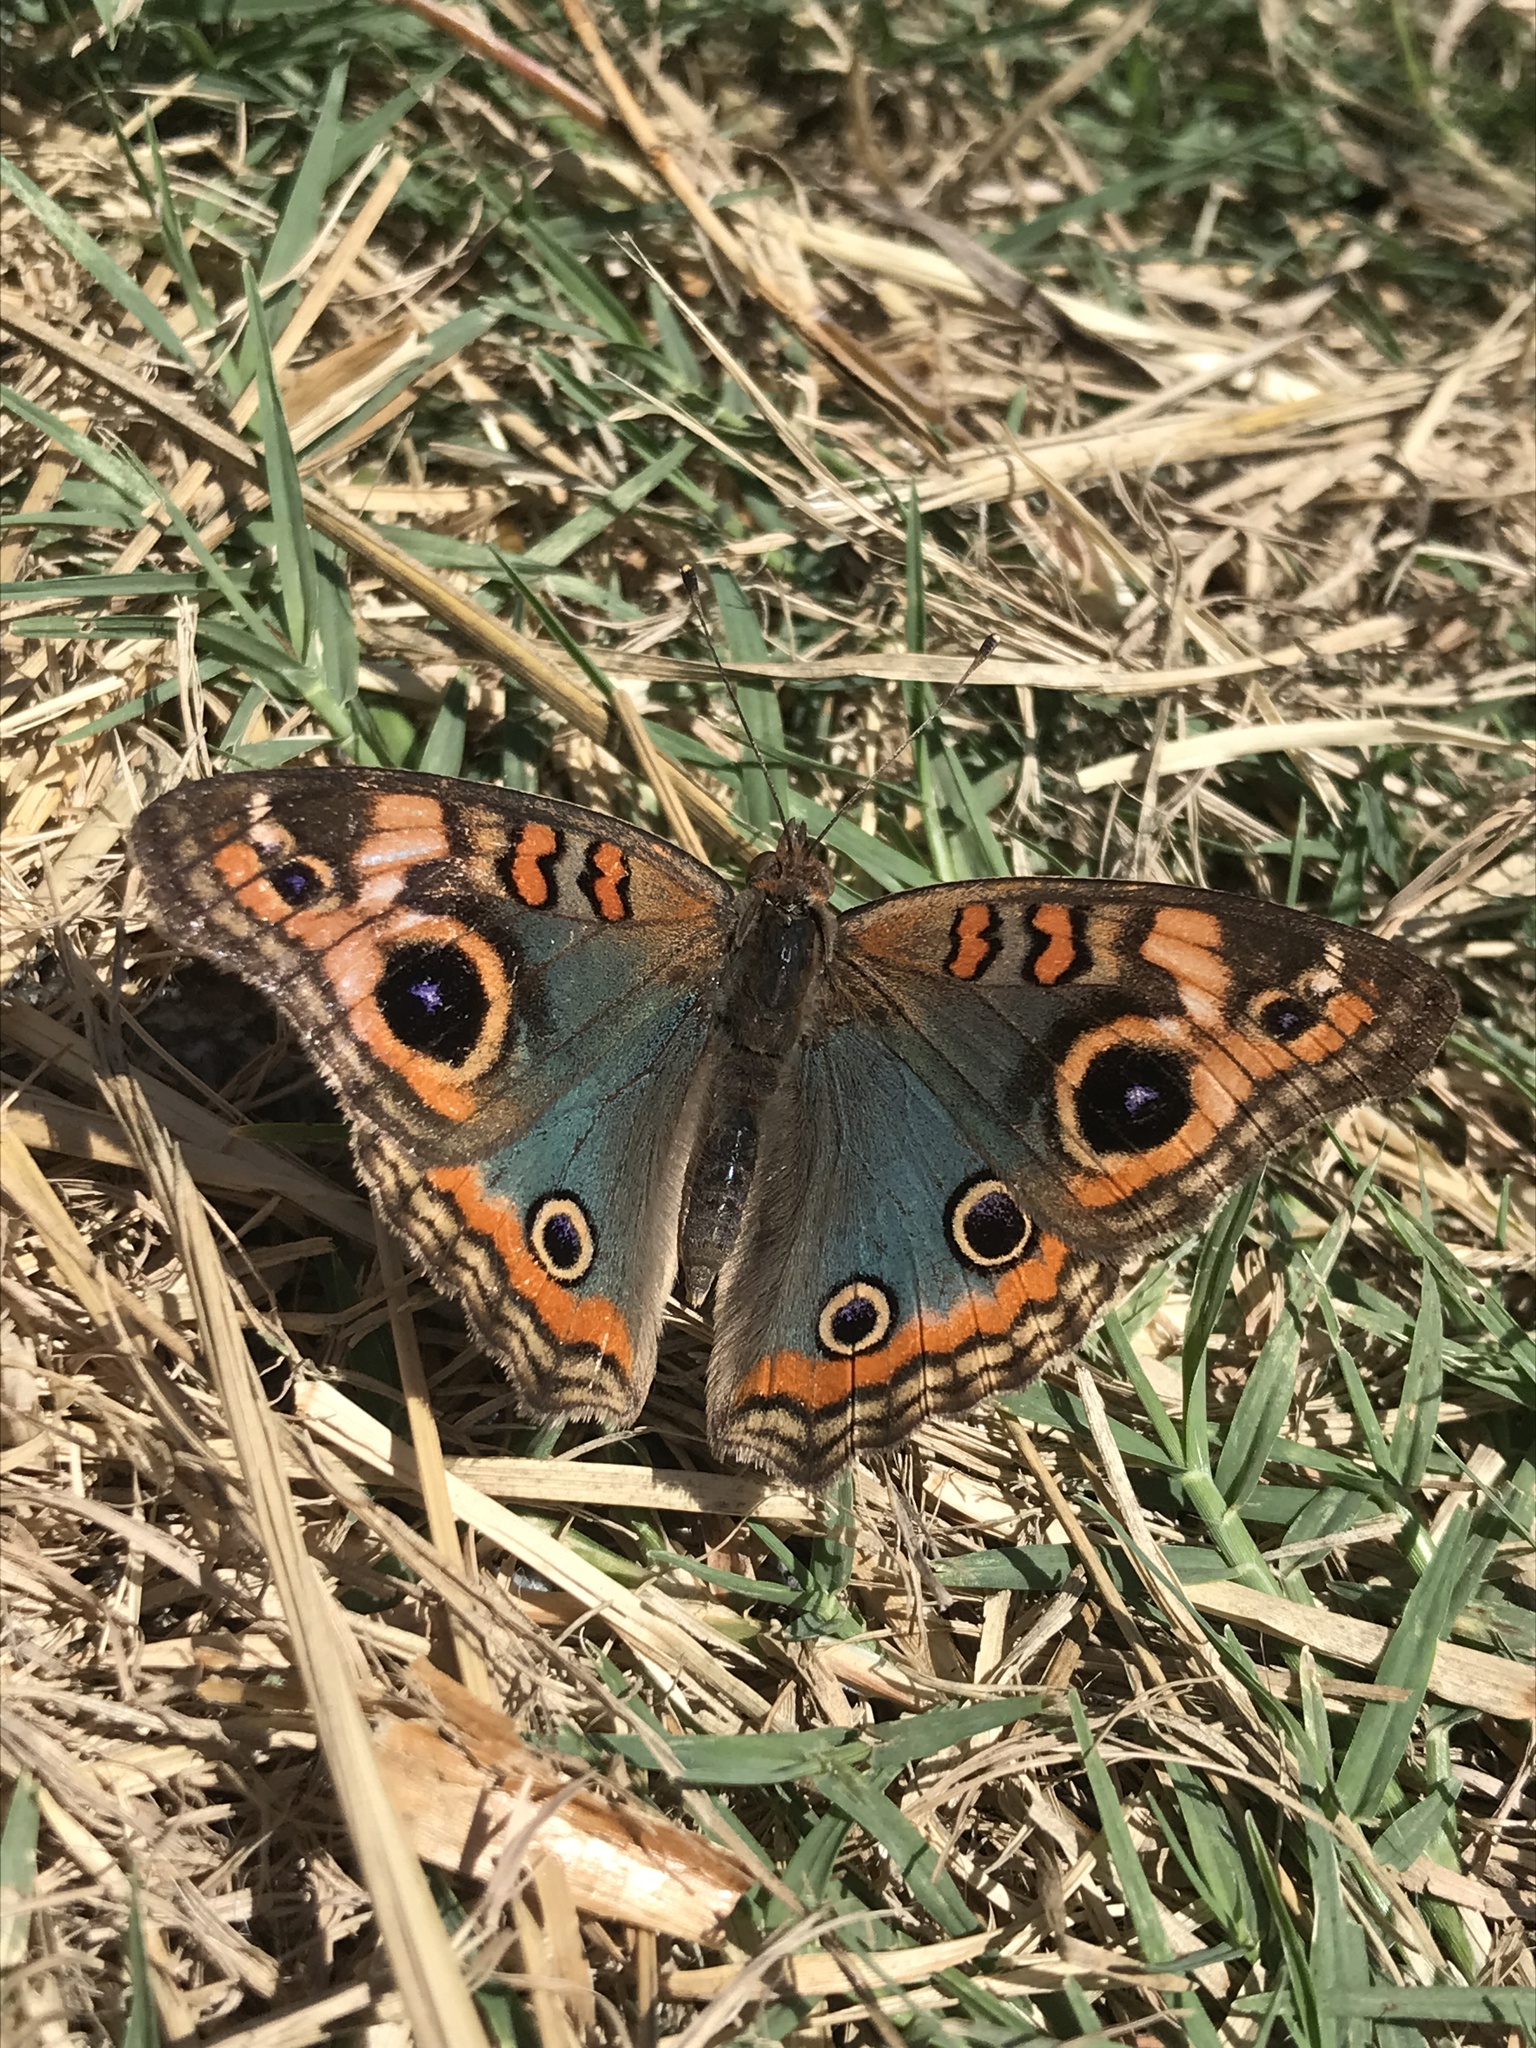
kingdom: Animalia
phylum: Arthropoda
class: Insecta
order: Lepidoptera
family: Nymphalidae
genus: Junonia
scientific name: Junonia lavinia
